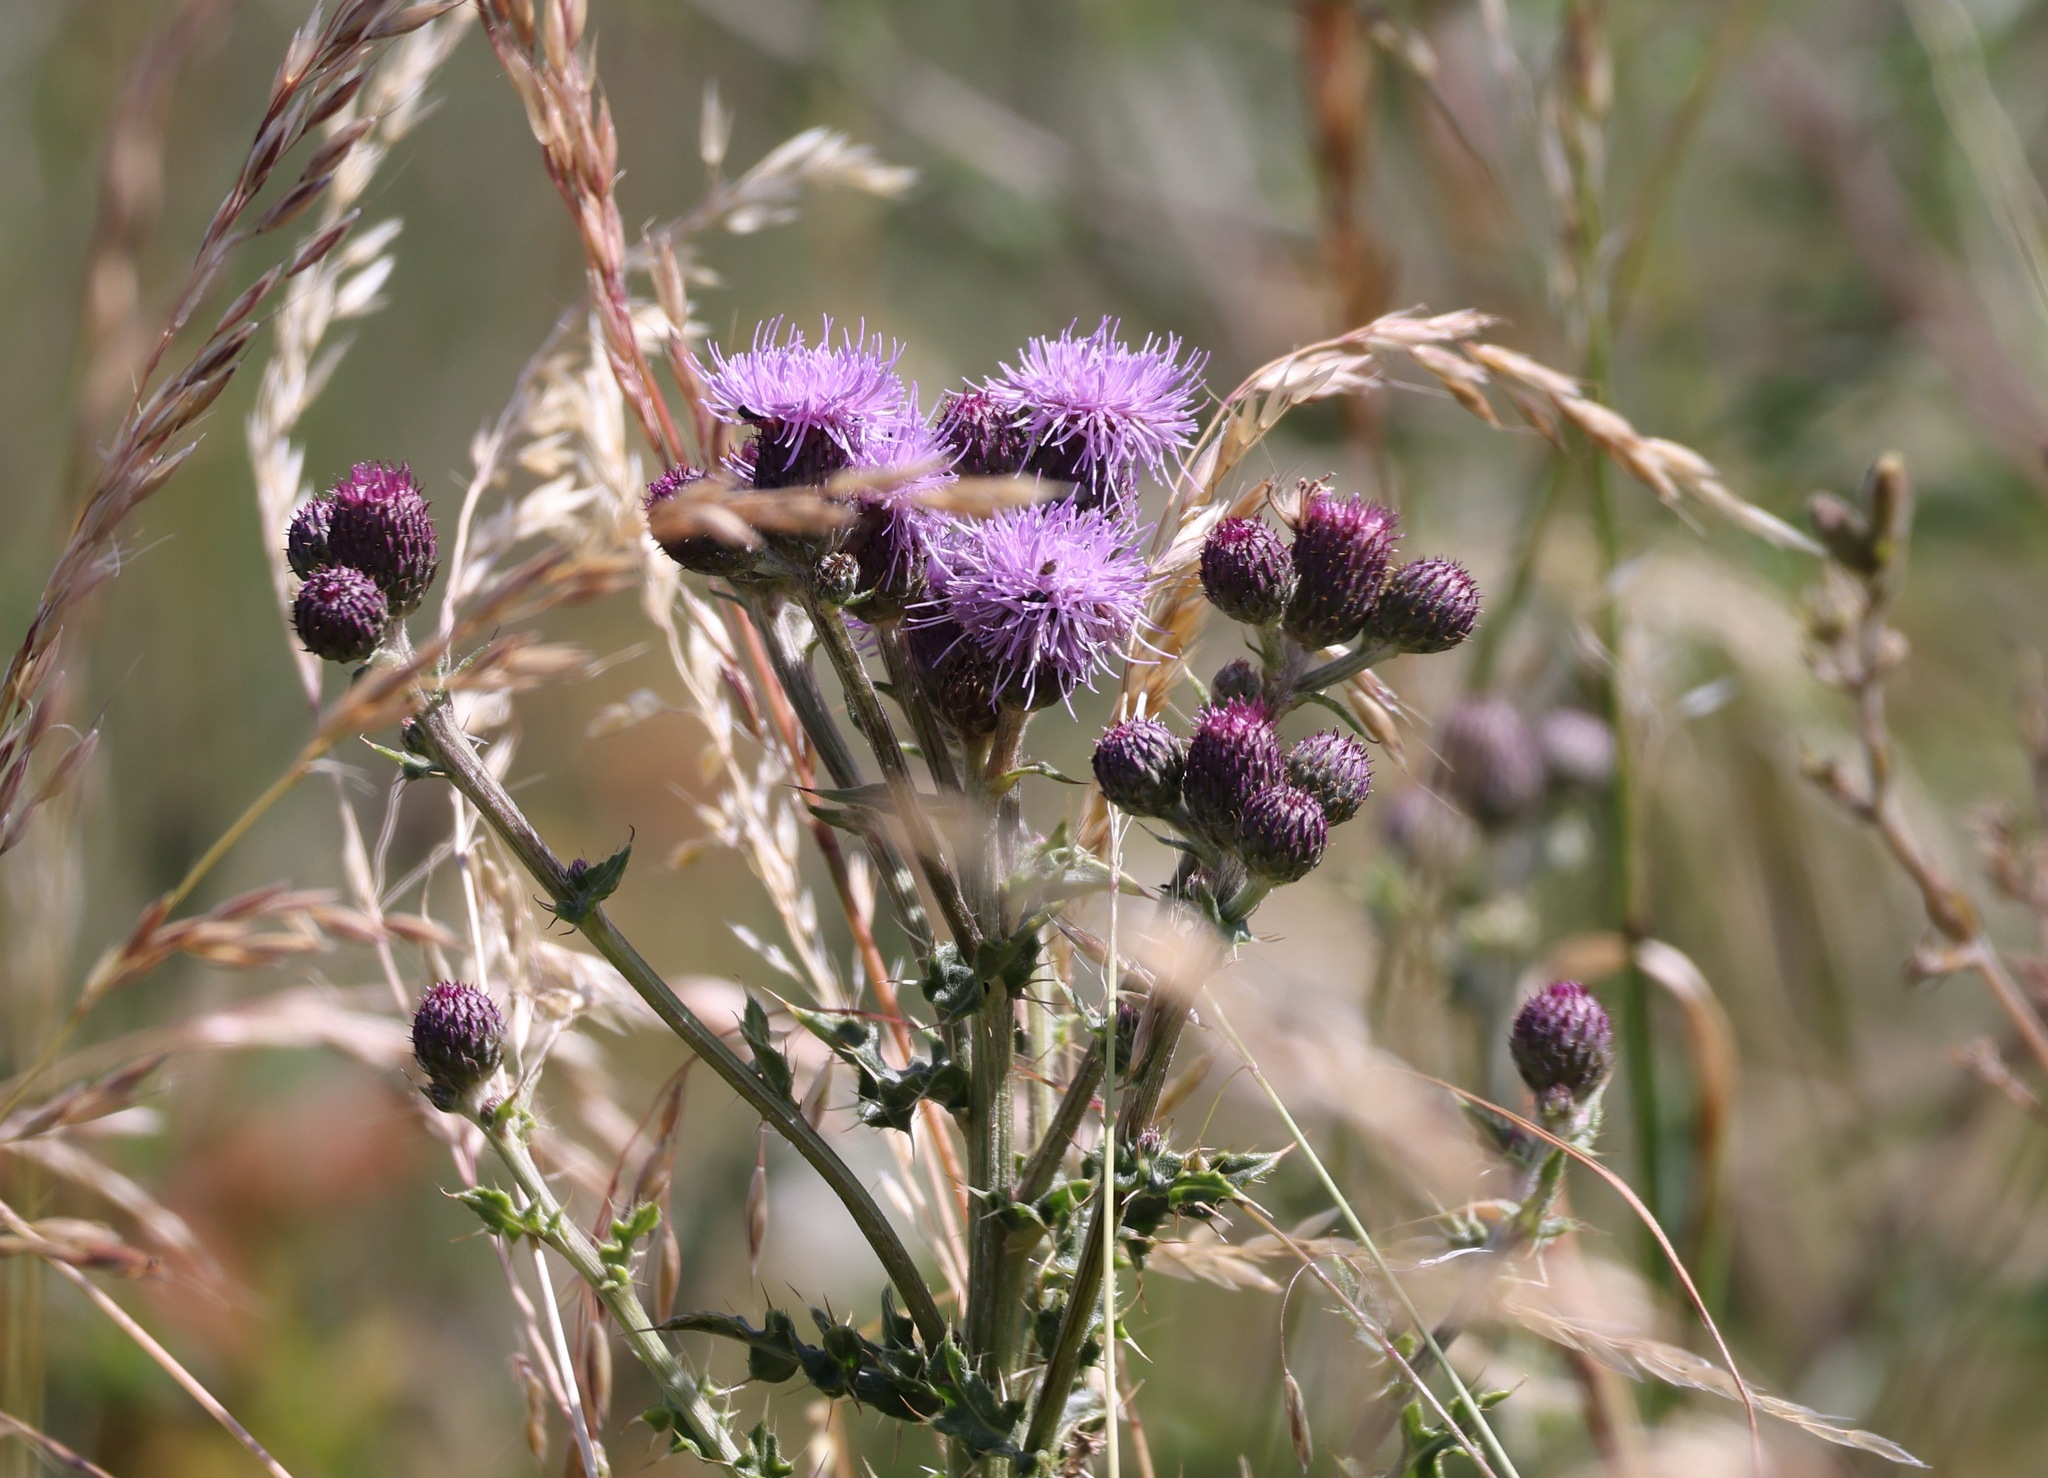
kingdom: Plantae
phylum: Tracheophyta
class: Magnoliopsida
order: Asterales
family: Asteraceae
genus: Cirsium
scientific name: Cirsium arvense
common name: Creeping thistle
